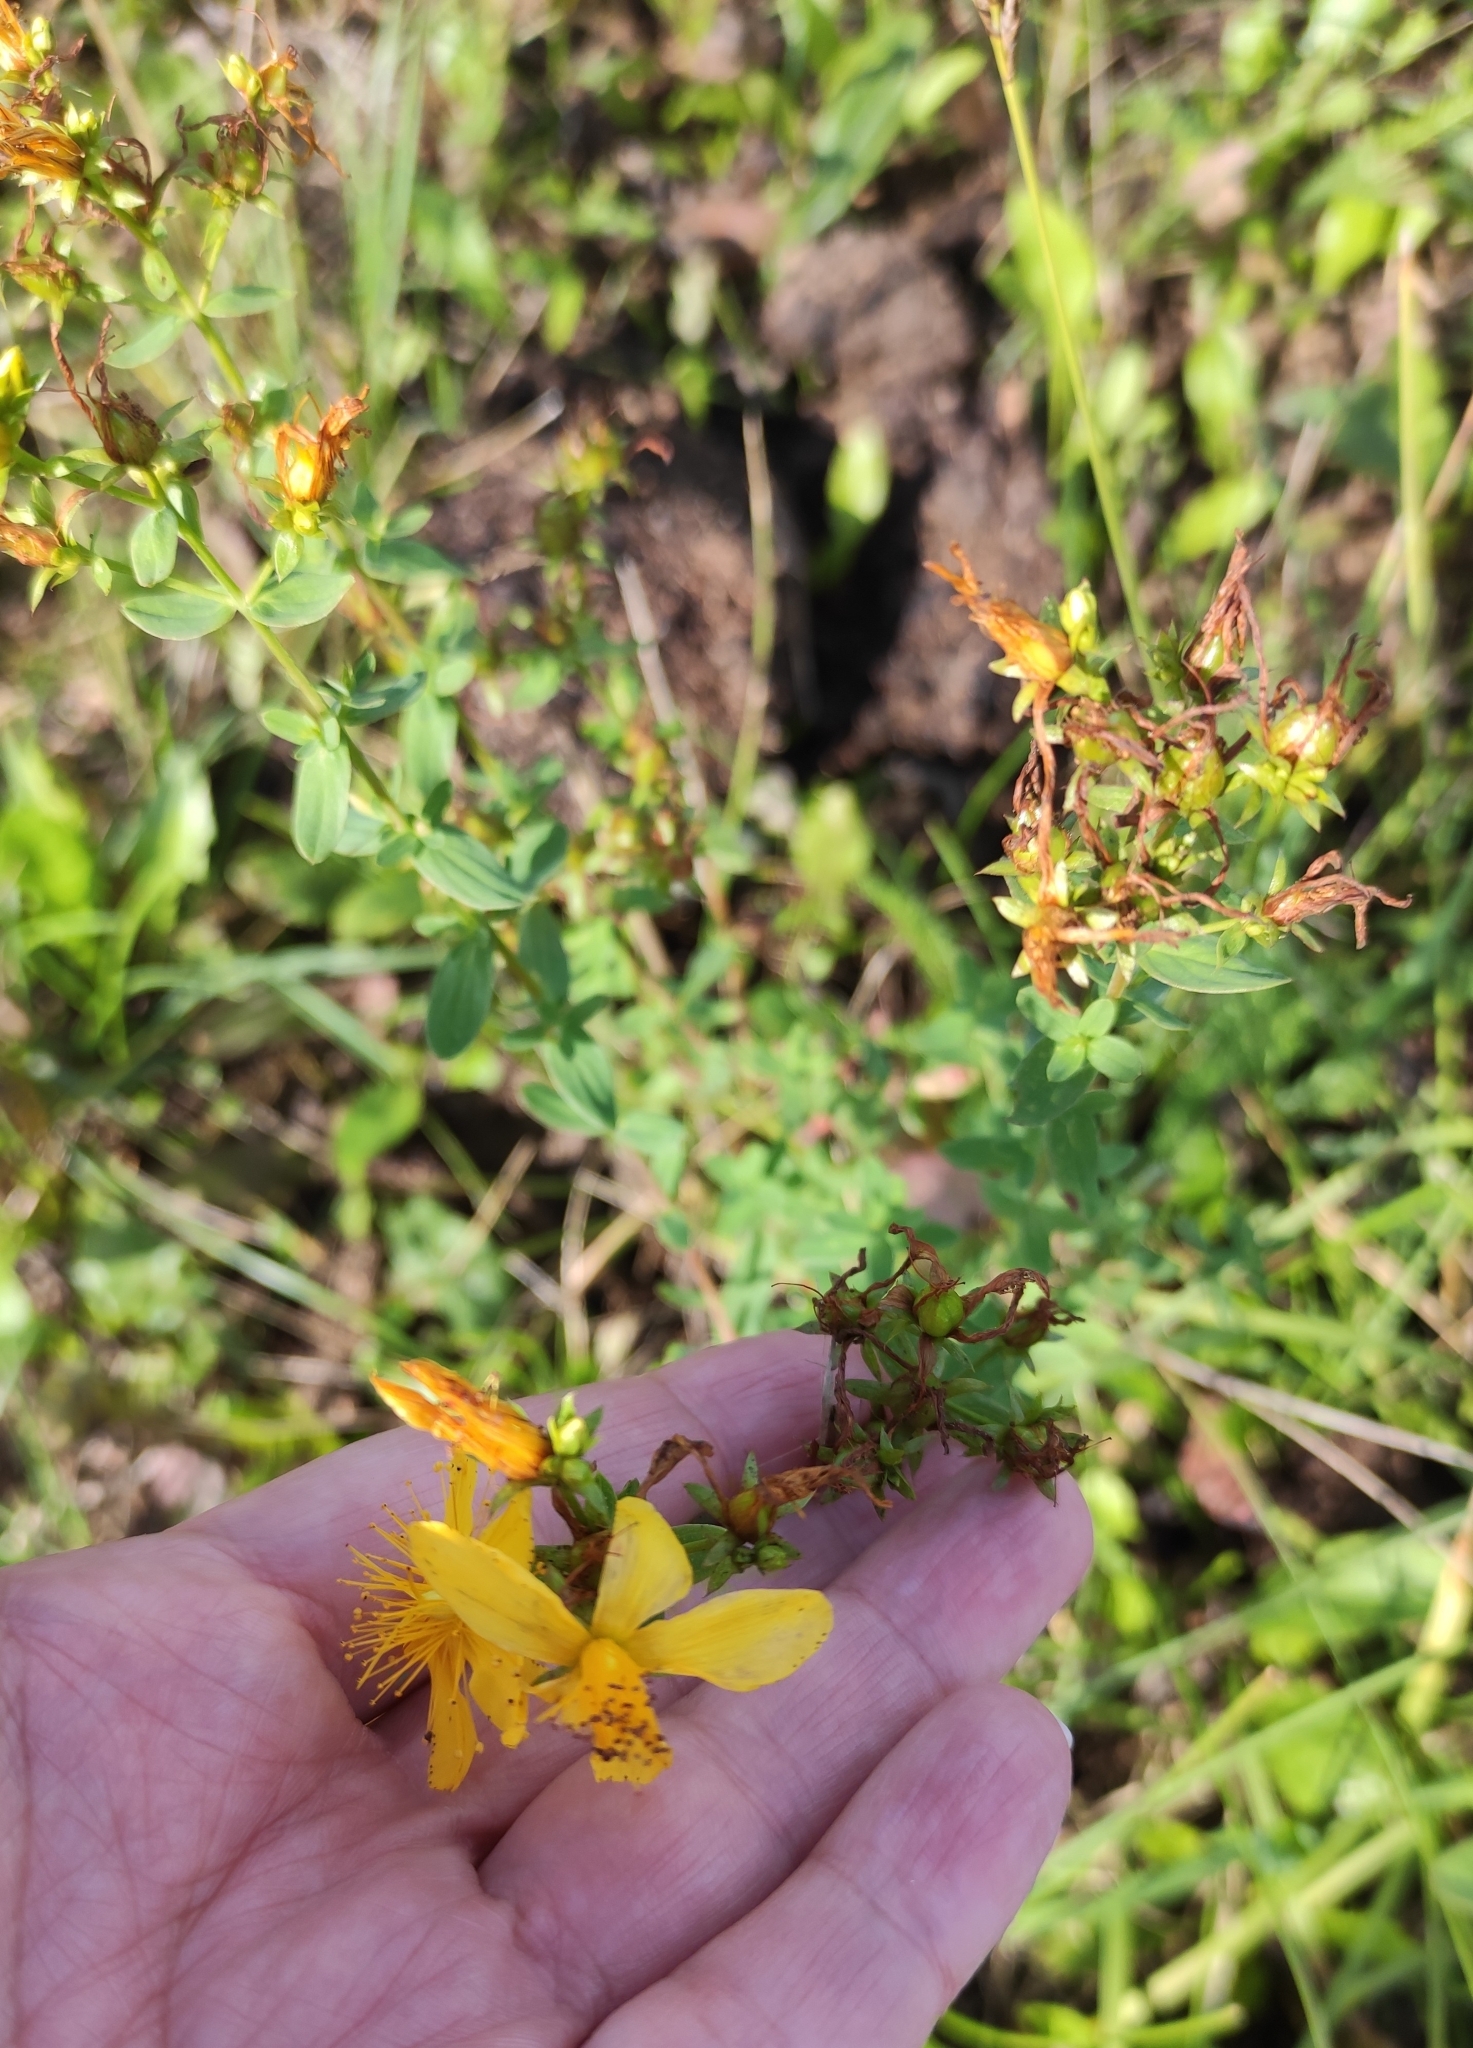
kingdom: Plantae
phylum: Tracheophyta
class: Magnoliopsida
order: Malpighiales
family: Hypericaceae
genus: Hypericum
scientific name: Hypericum perforatum
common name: Common st. johnswort
